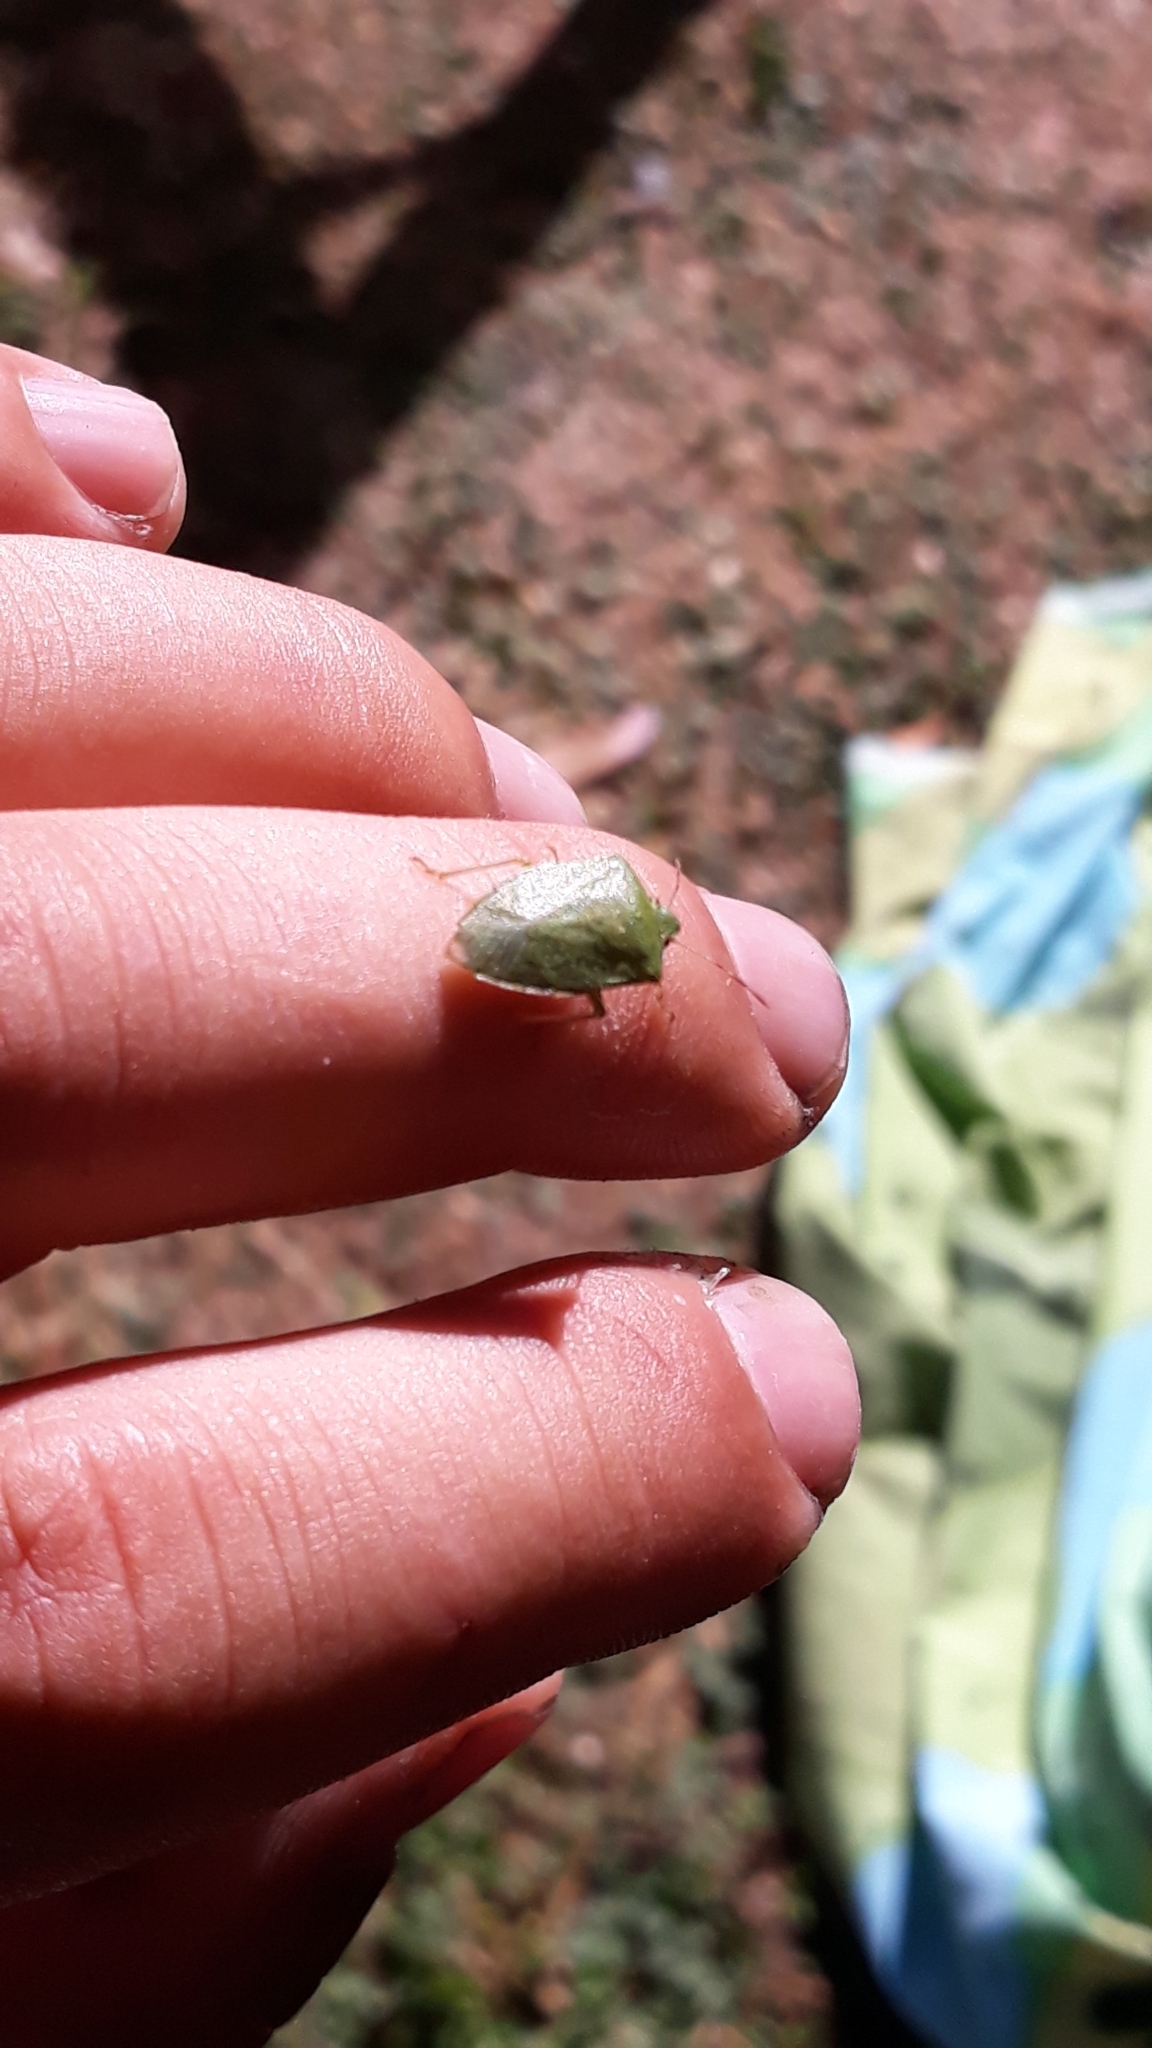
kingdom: Animalia
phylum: Arthropoda
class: Insecta
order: Hemiptera
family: Pentatomidae
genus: Nezara
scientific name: Nezara viridula
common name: Southern green stink bug
